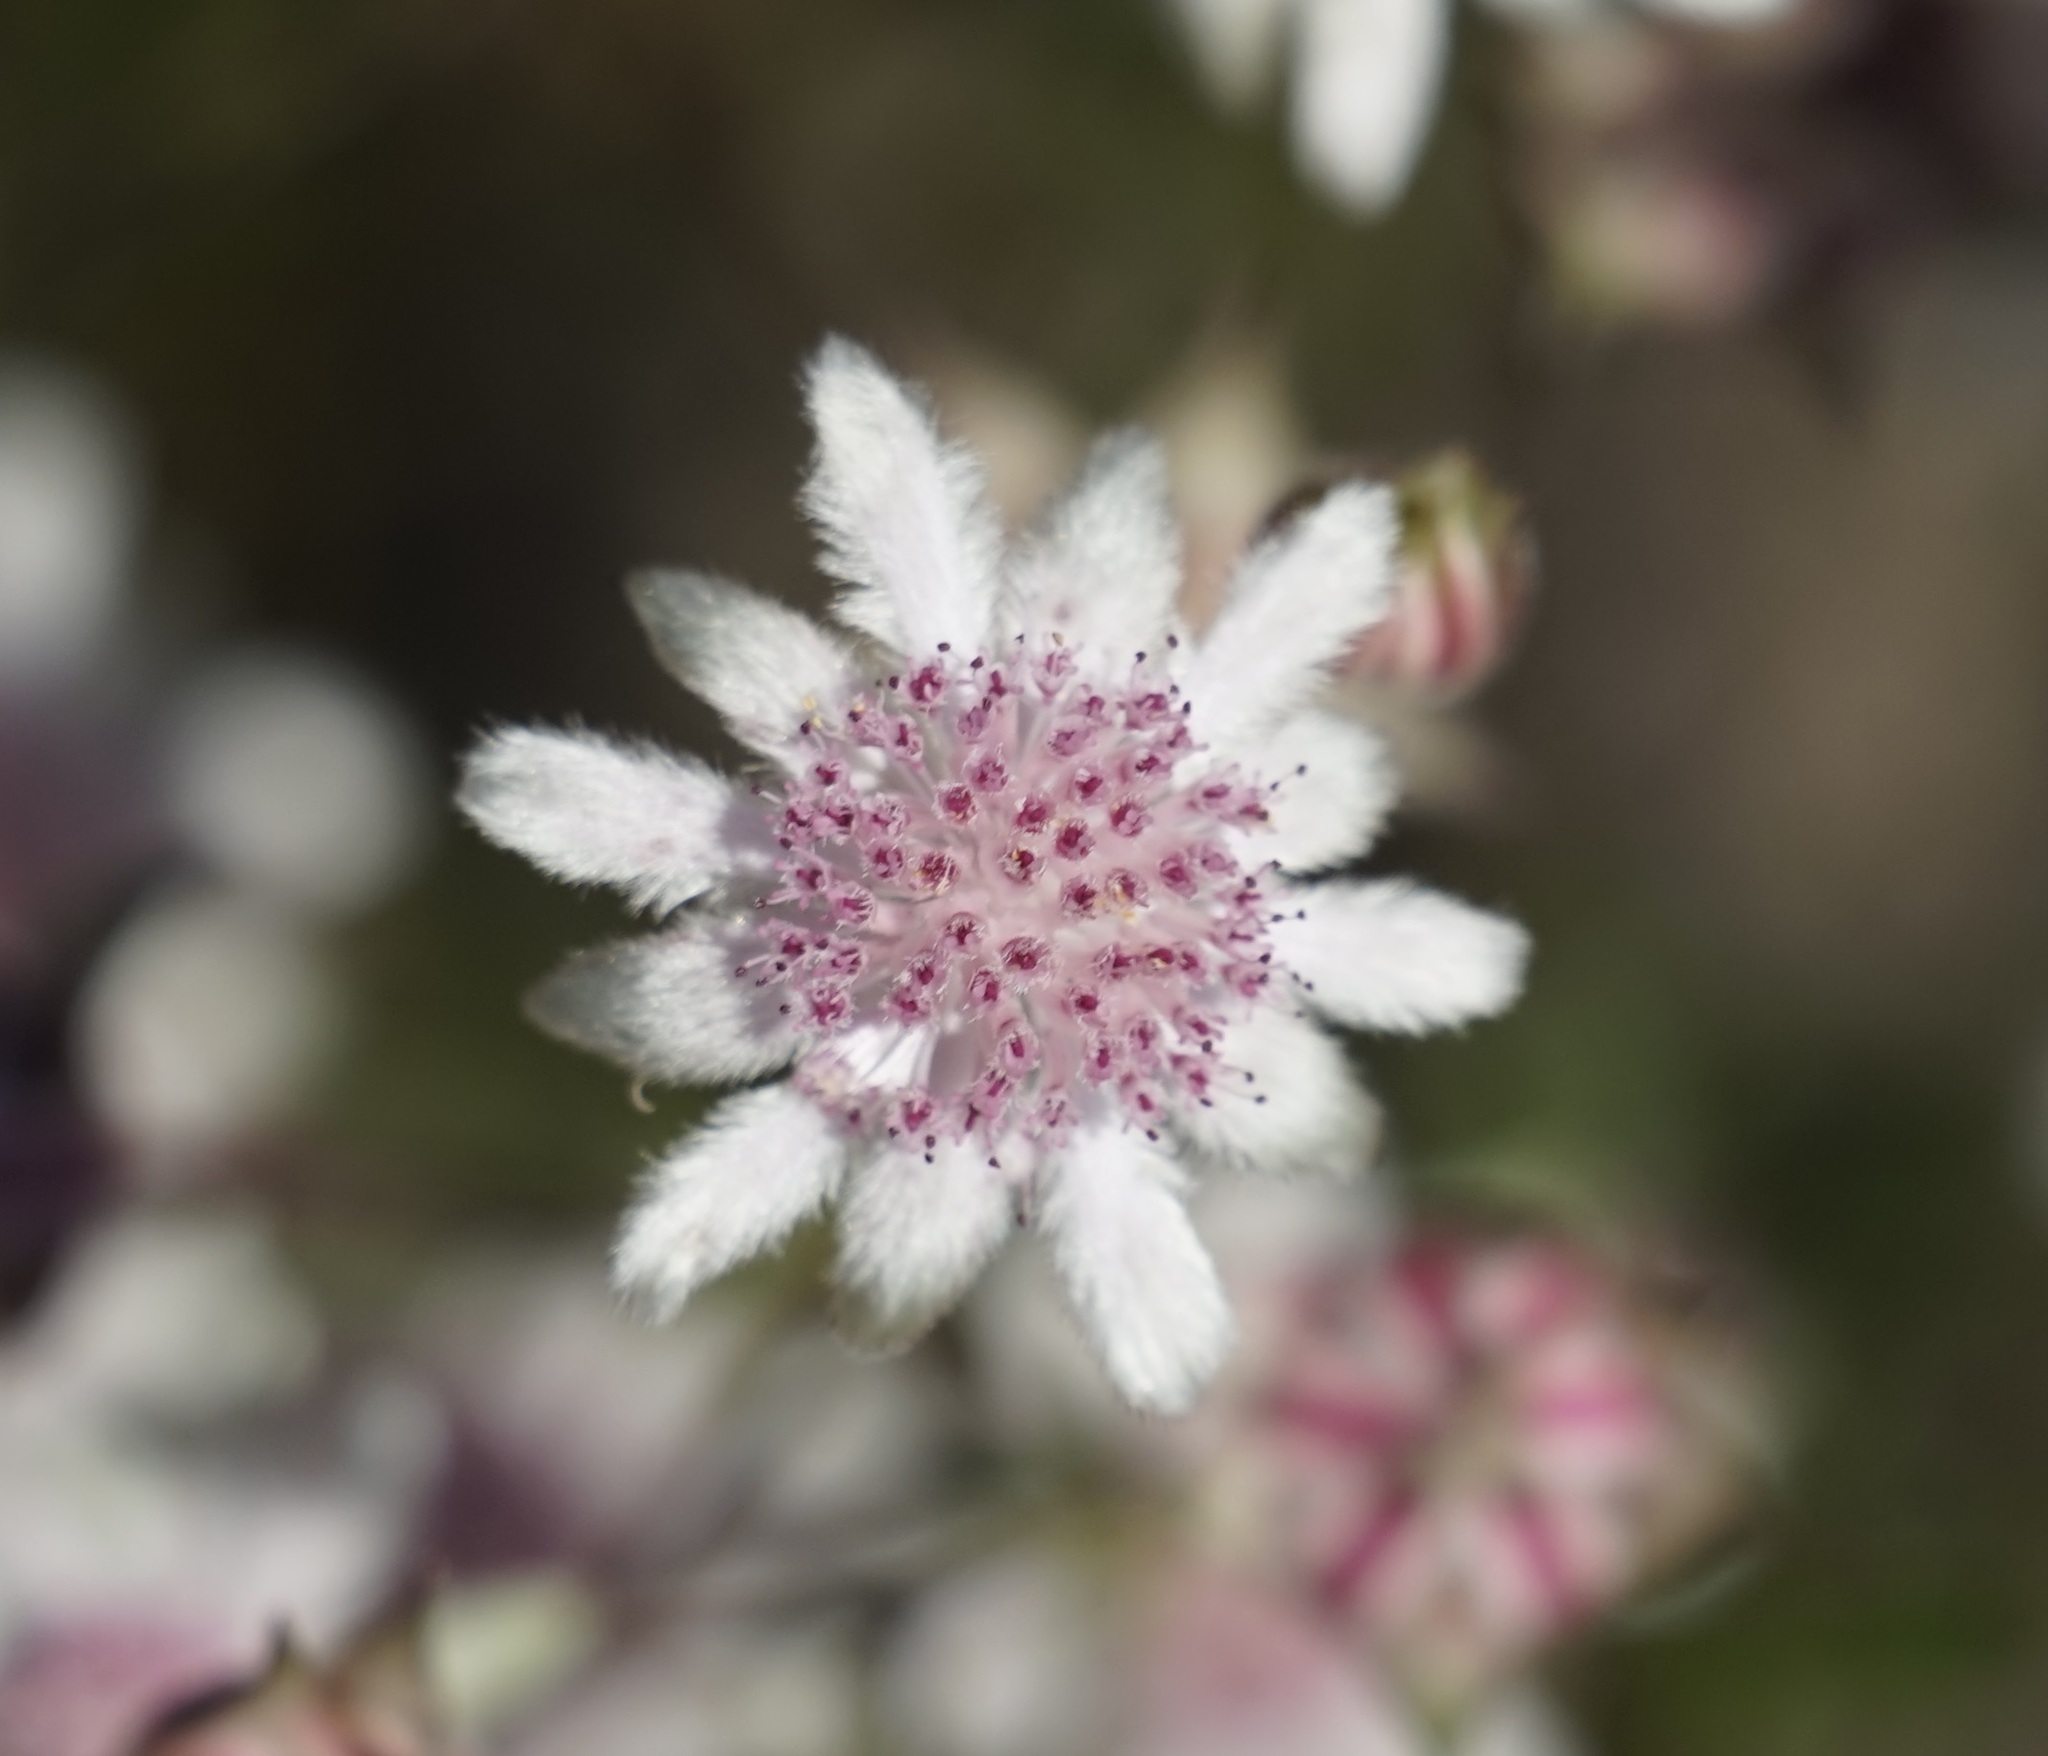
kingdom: Plantae
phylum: Tracheophyta
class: Magnoliopsida
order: Apiales
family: Apiaceae
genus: Actinotus
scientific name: Actinotus forsythii
